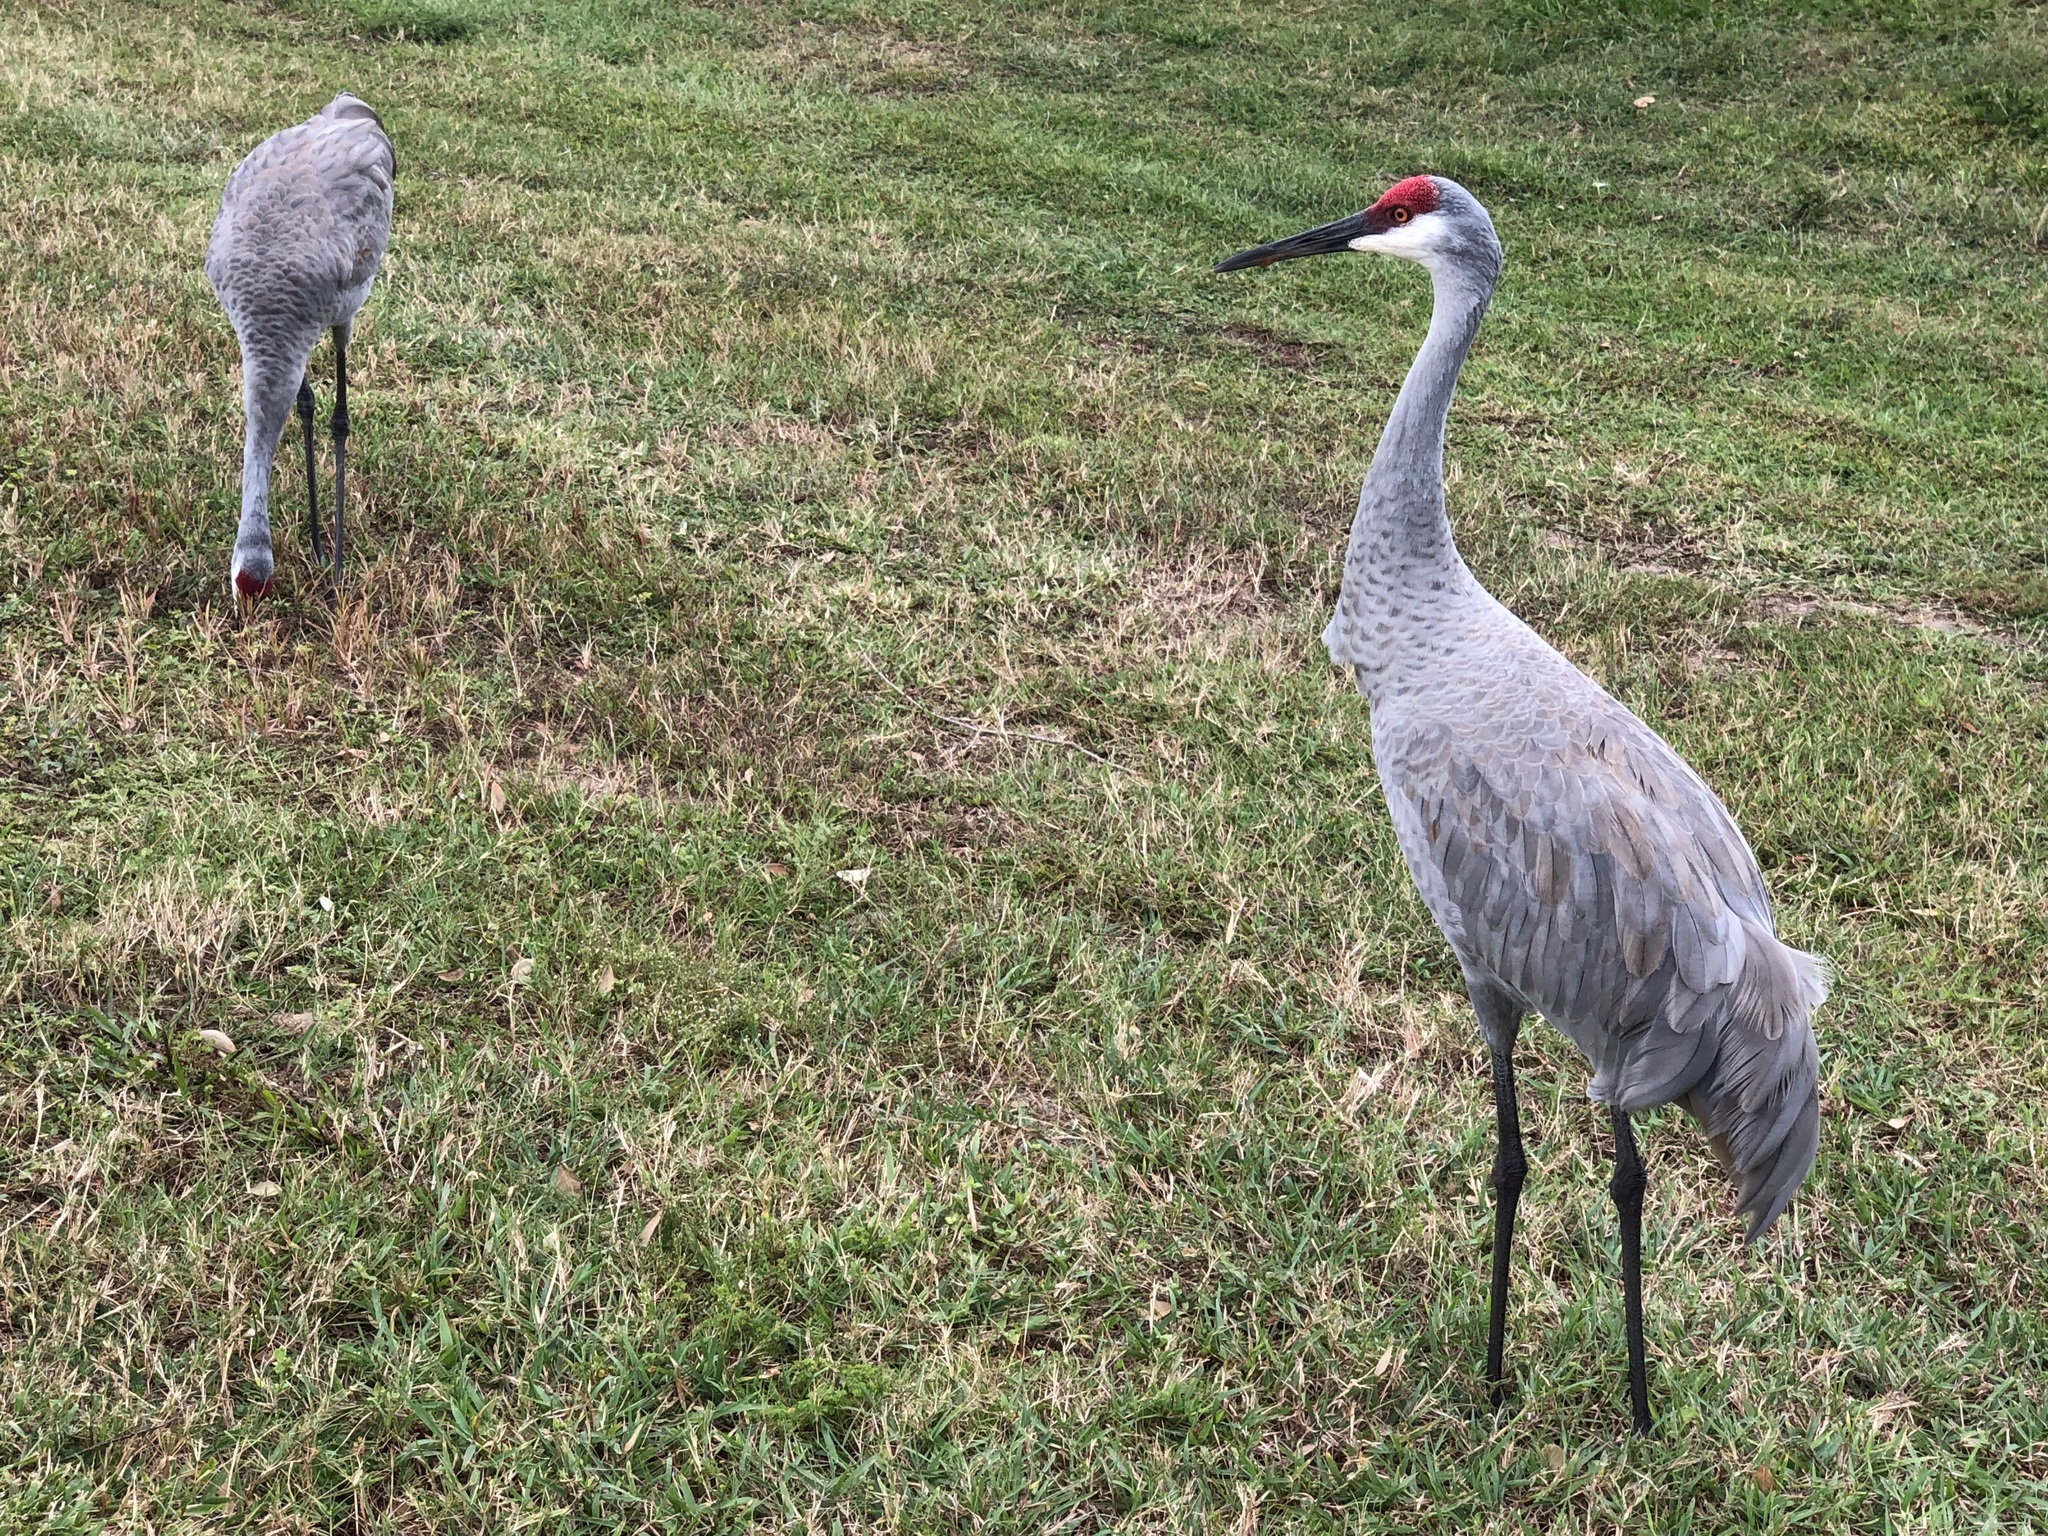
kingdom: Animalia
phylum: Chordata
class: Aves
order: Gruiformes
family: Gruidae
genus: Grus
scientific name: Grus canadensis
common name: Sandhill crane
